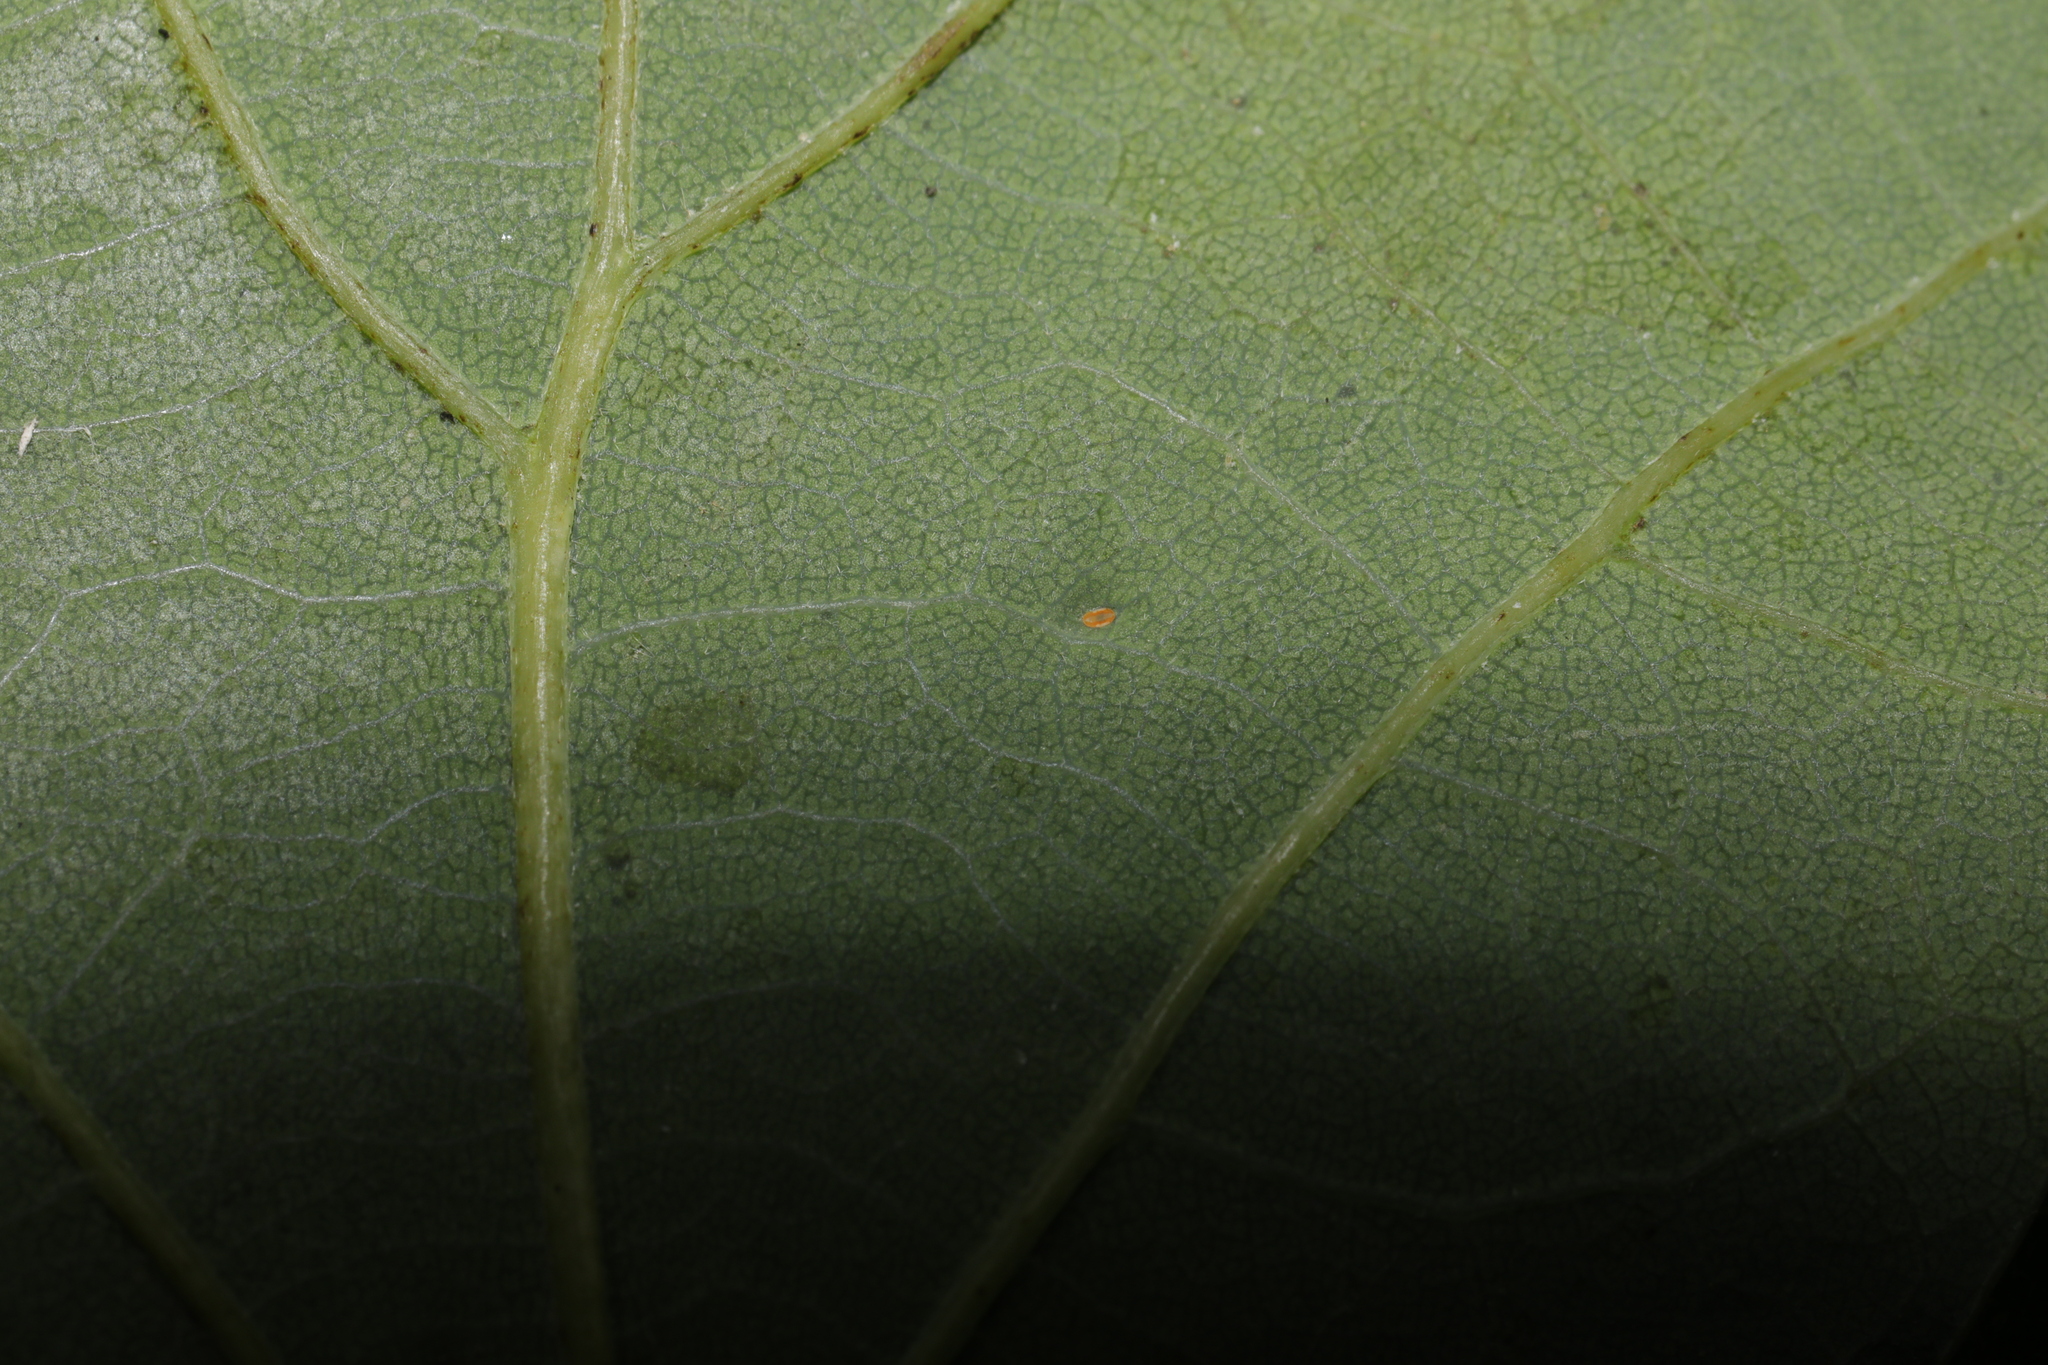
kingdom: Animalia
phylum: Arthropoda
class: Insecta
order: Hemiptera
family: Triozidae
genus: Trioza
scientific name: Trioza remota
